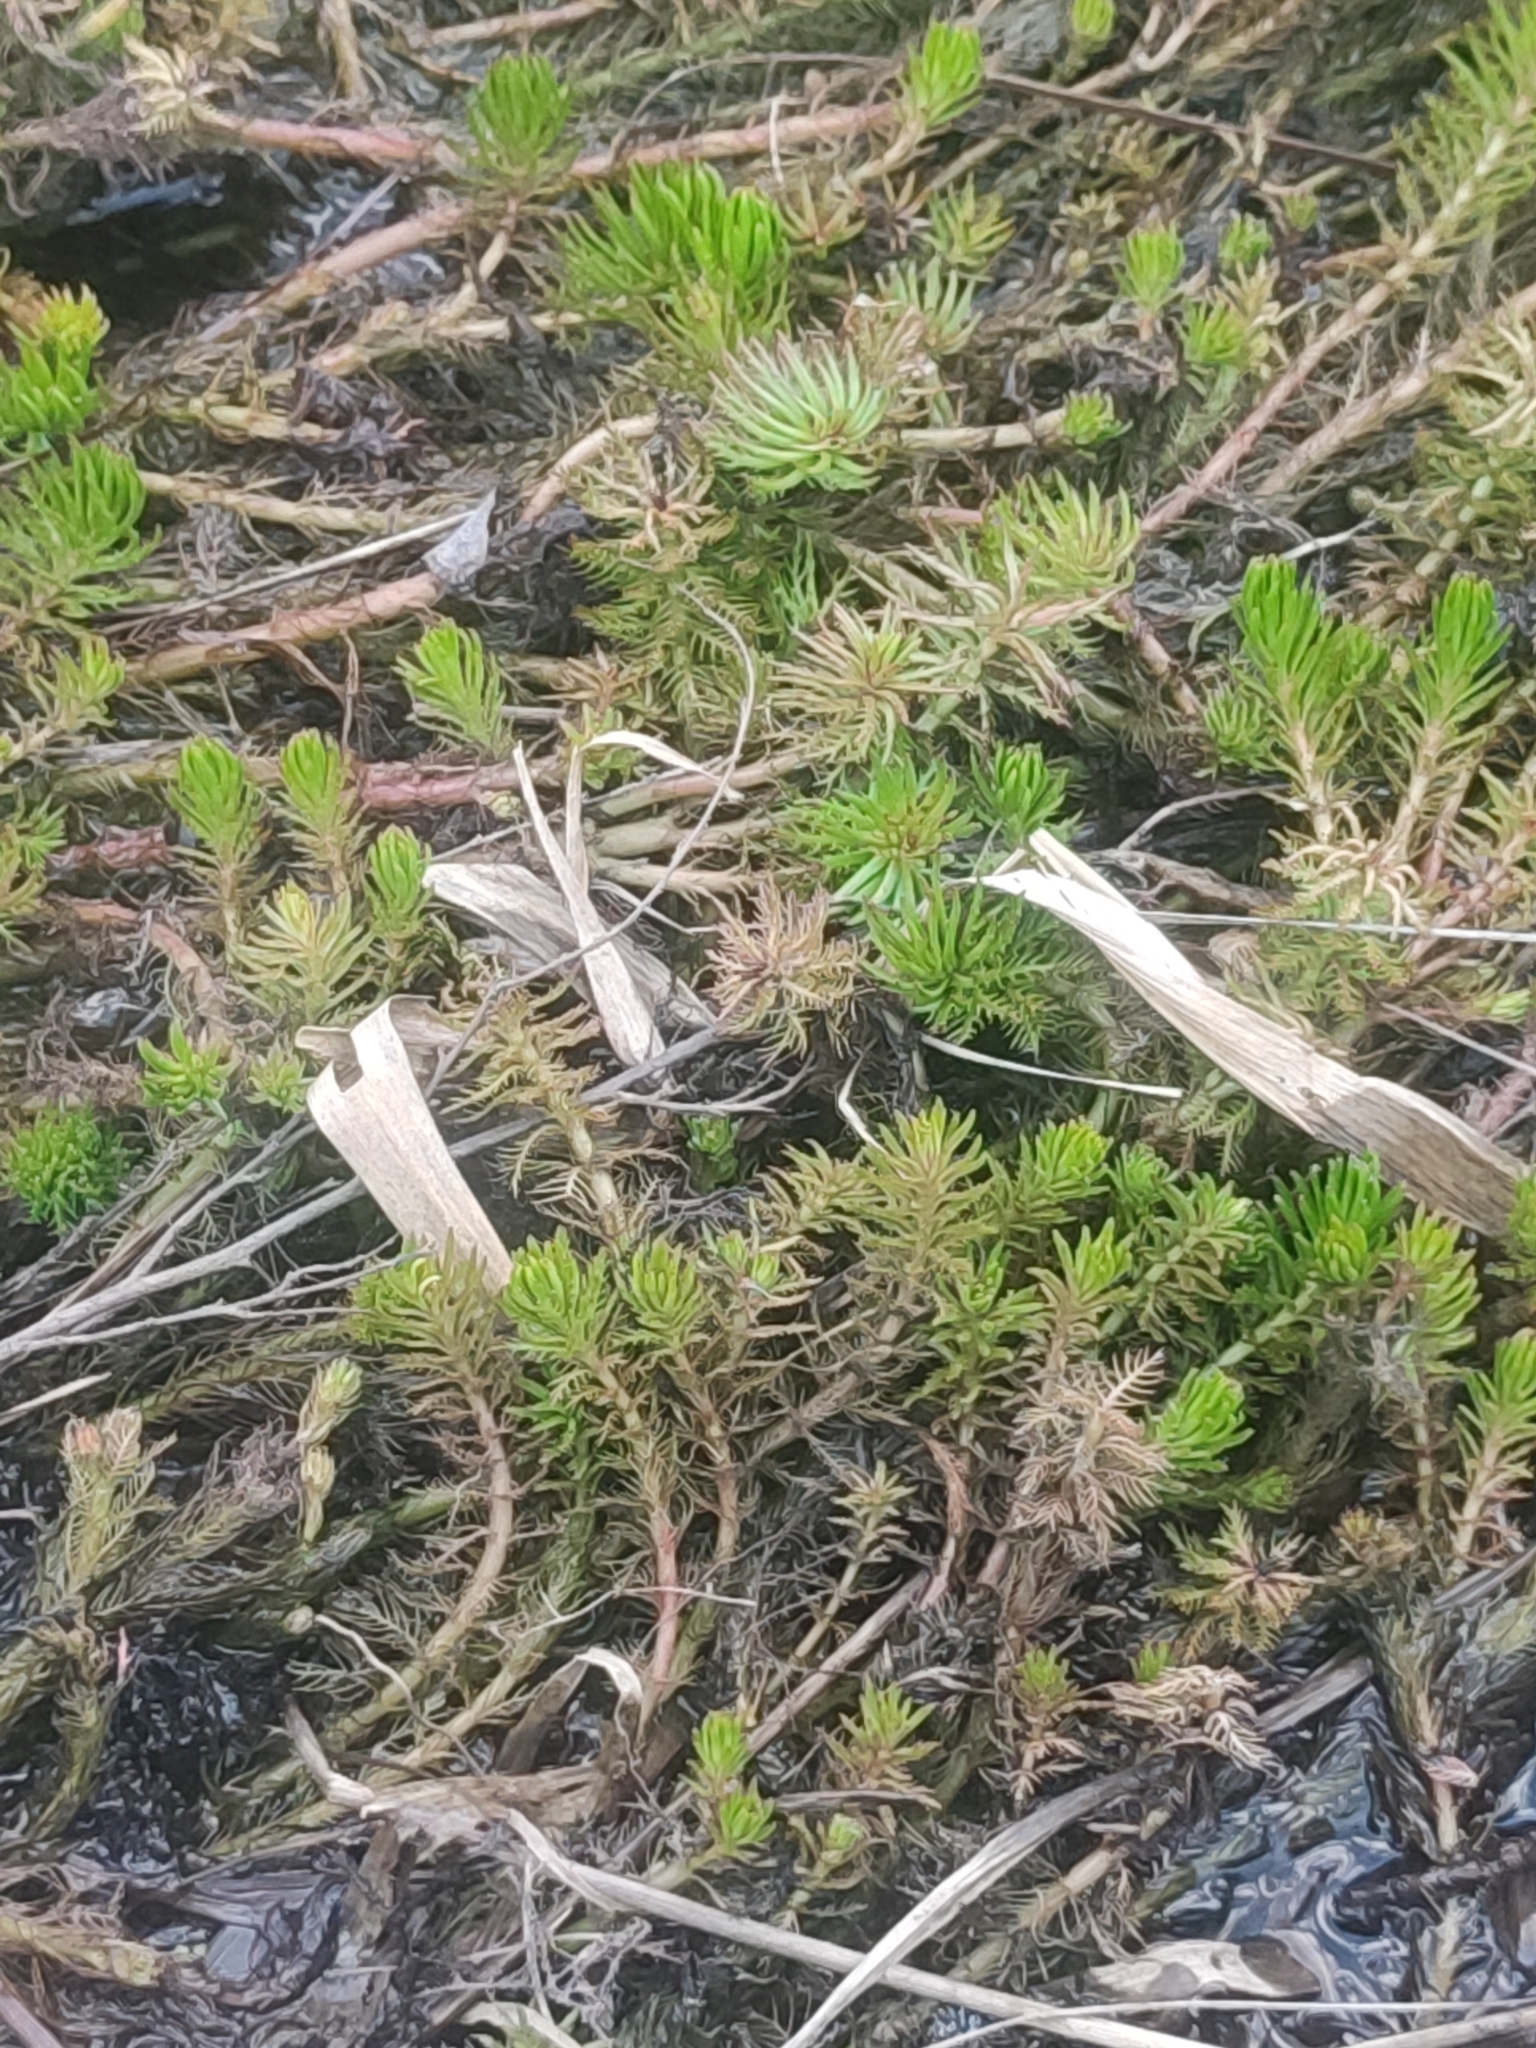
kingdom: Plantae
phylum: Tracheophyta
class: Magnoliopsida
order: Saxifragales
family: Haloragaceae
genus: Myriophyllum
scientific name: Myriophyllum
